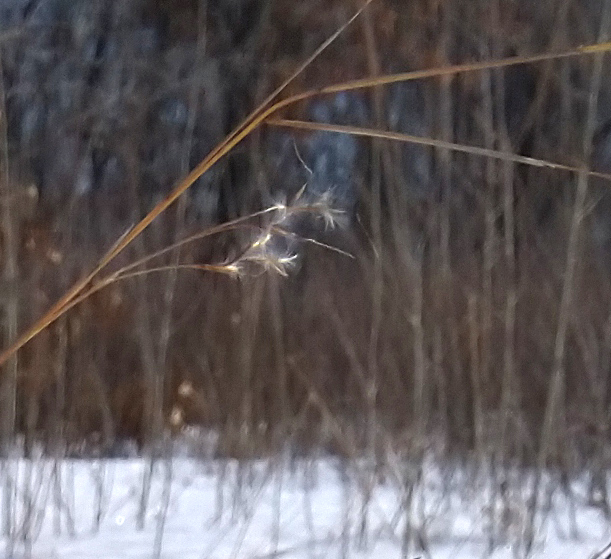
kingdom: Plantae
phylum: Tracheophyta
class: Liliopsida
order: Poales
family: Poaceae
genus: Schizachyrium
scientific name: Schizachyrium scoparium
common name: Little bluestem
